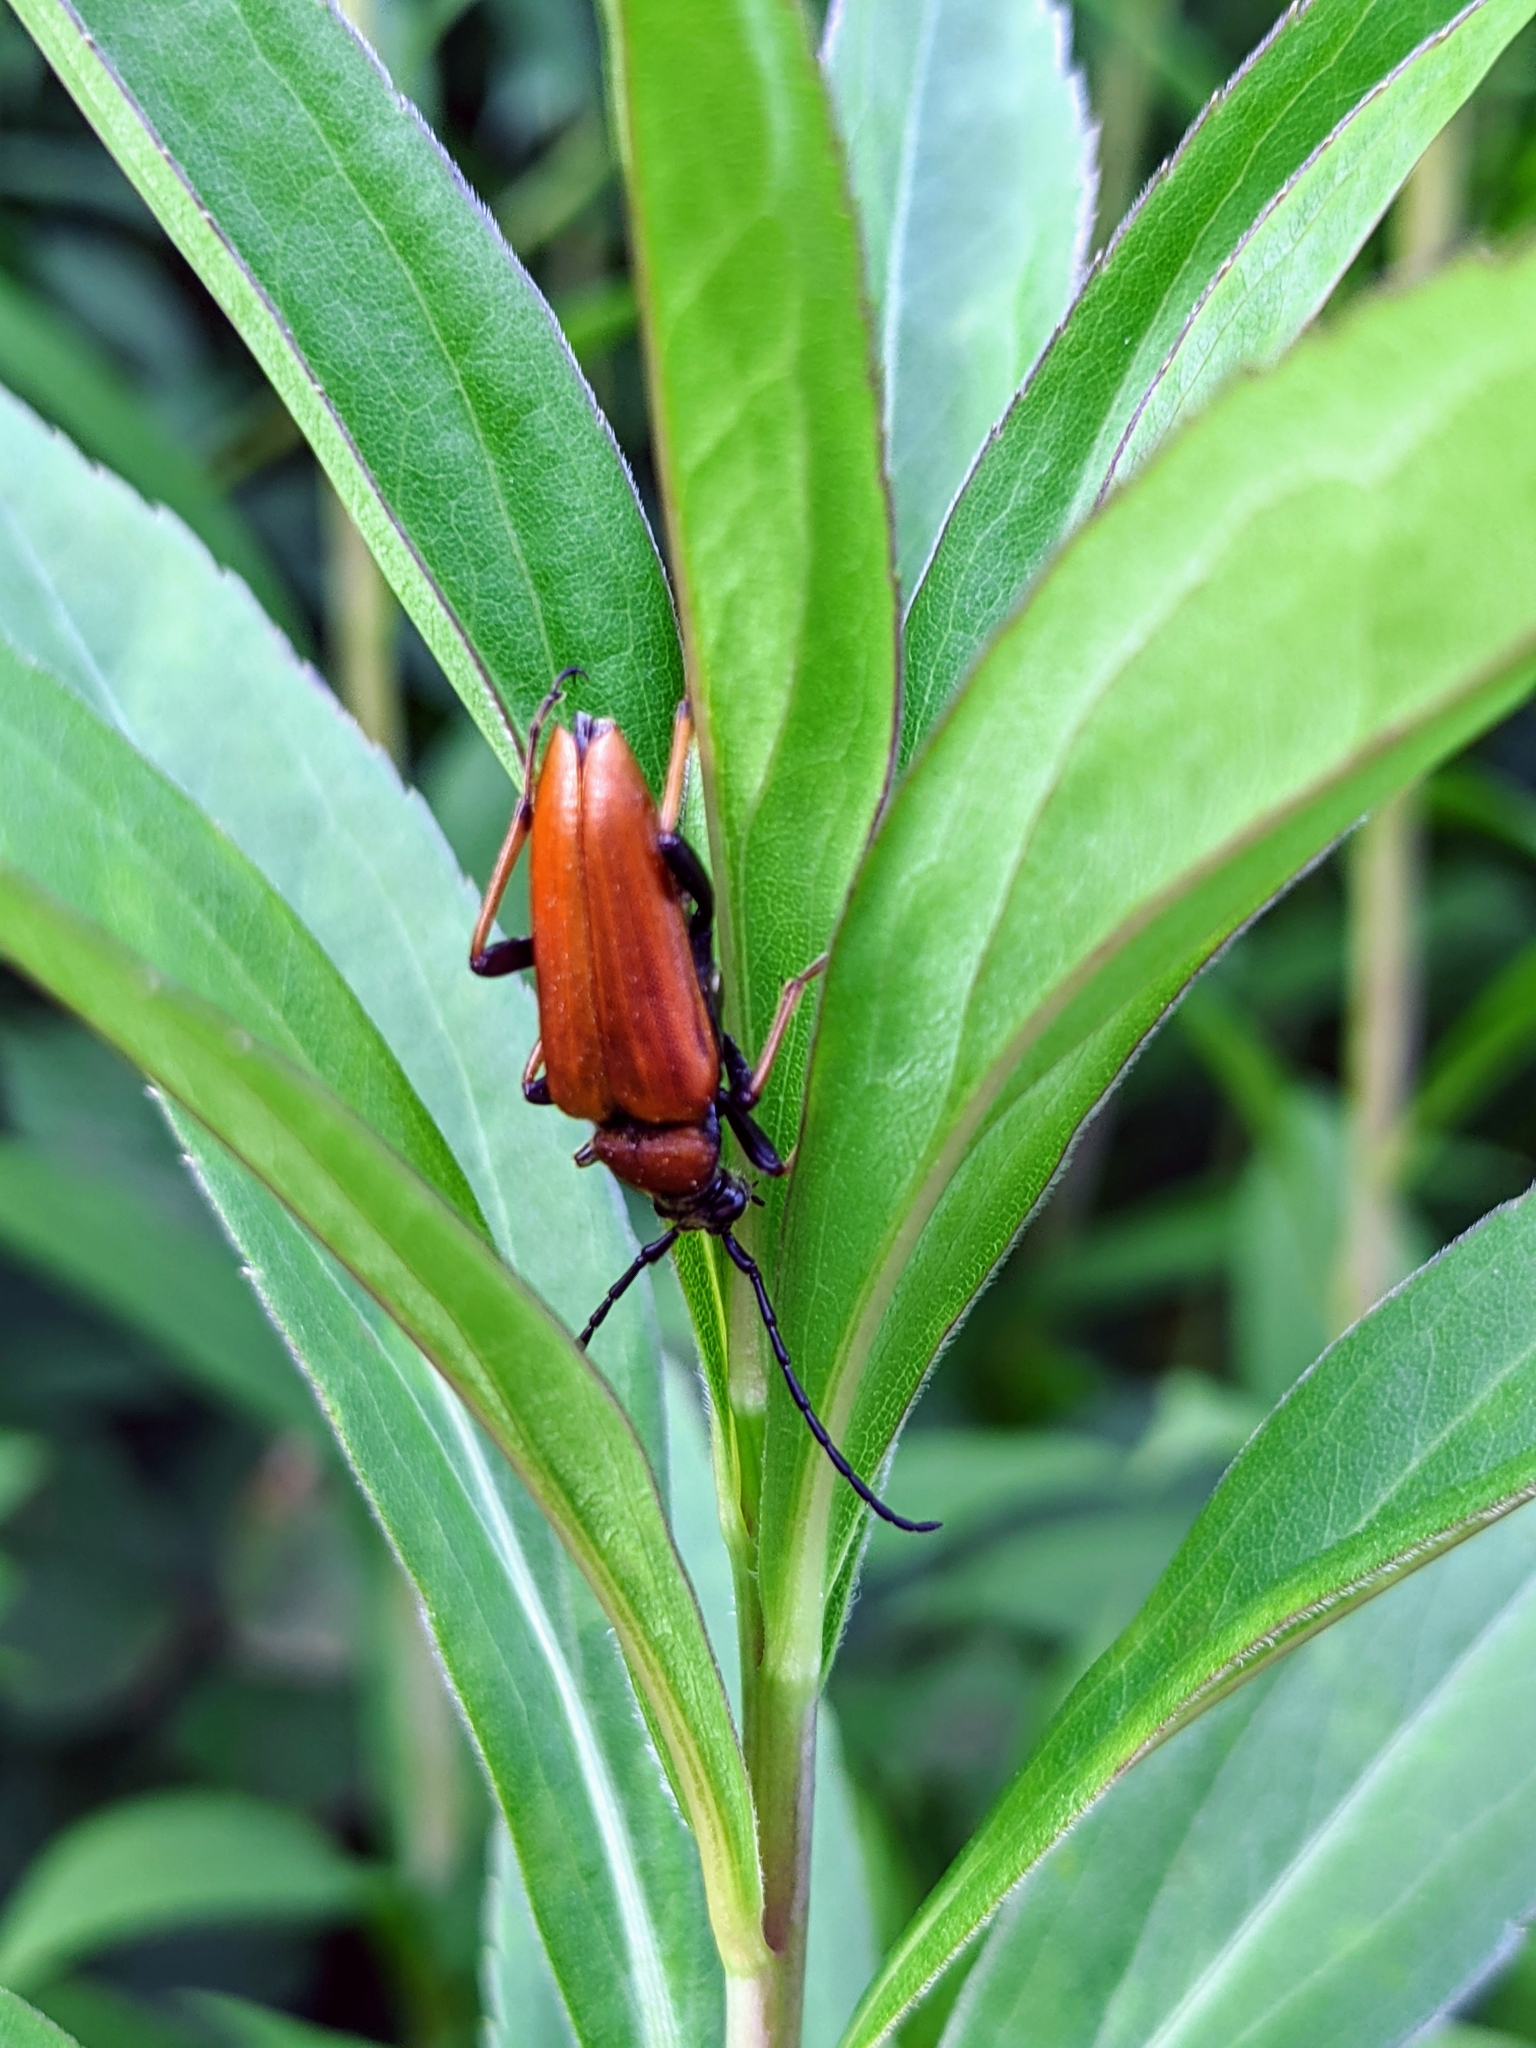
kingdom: Animalia
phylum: Arthropoda
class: Insecta
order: Coleoptera
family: Cerambycidae
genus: Stictoleptura
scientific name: Stictoleptura rubra
